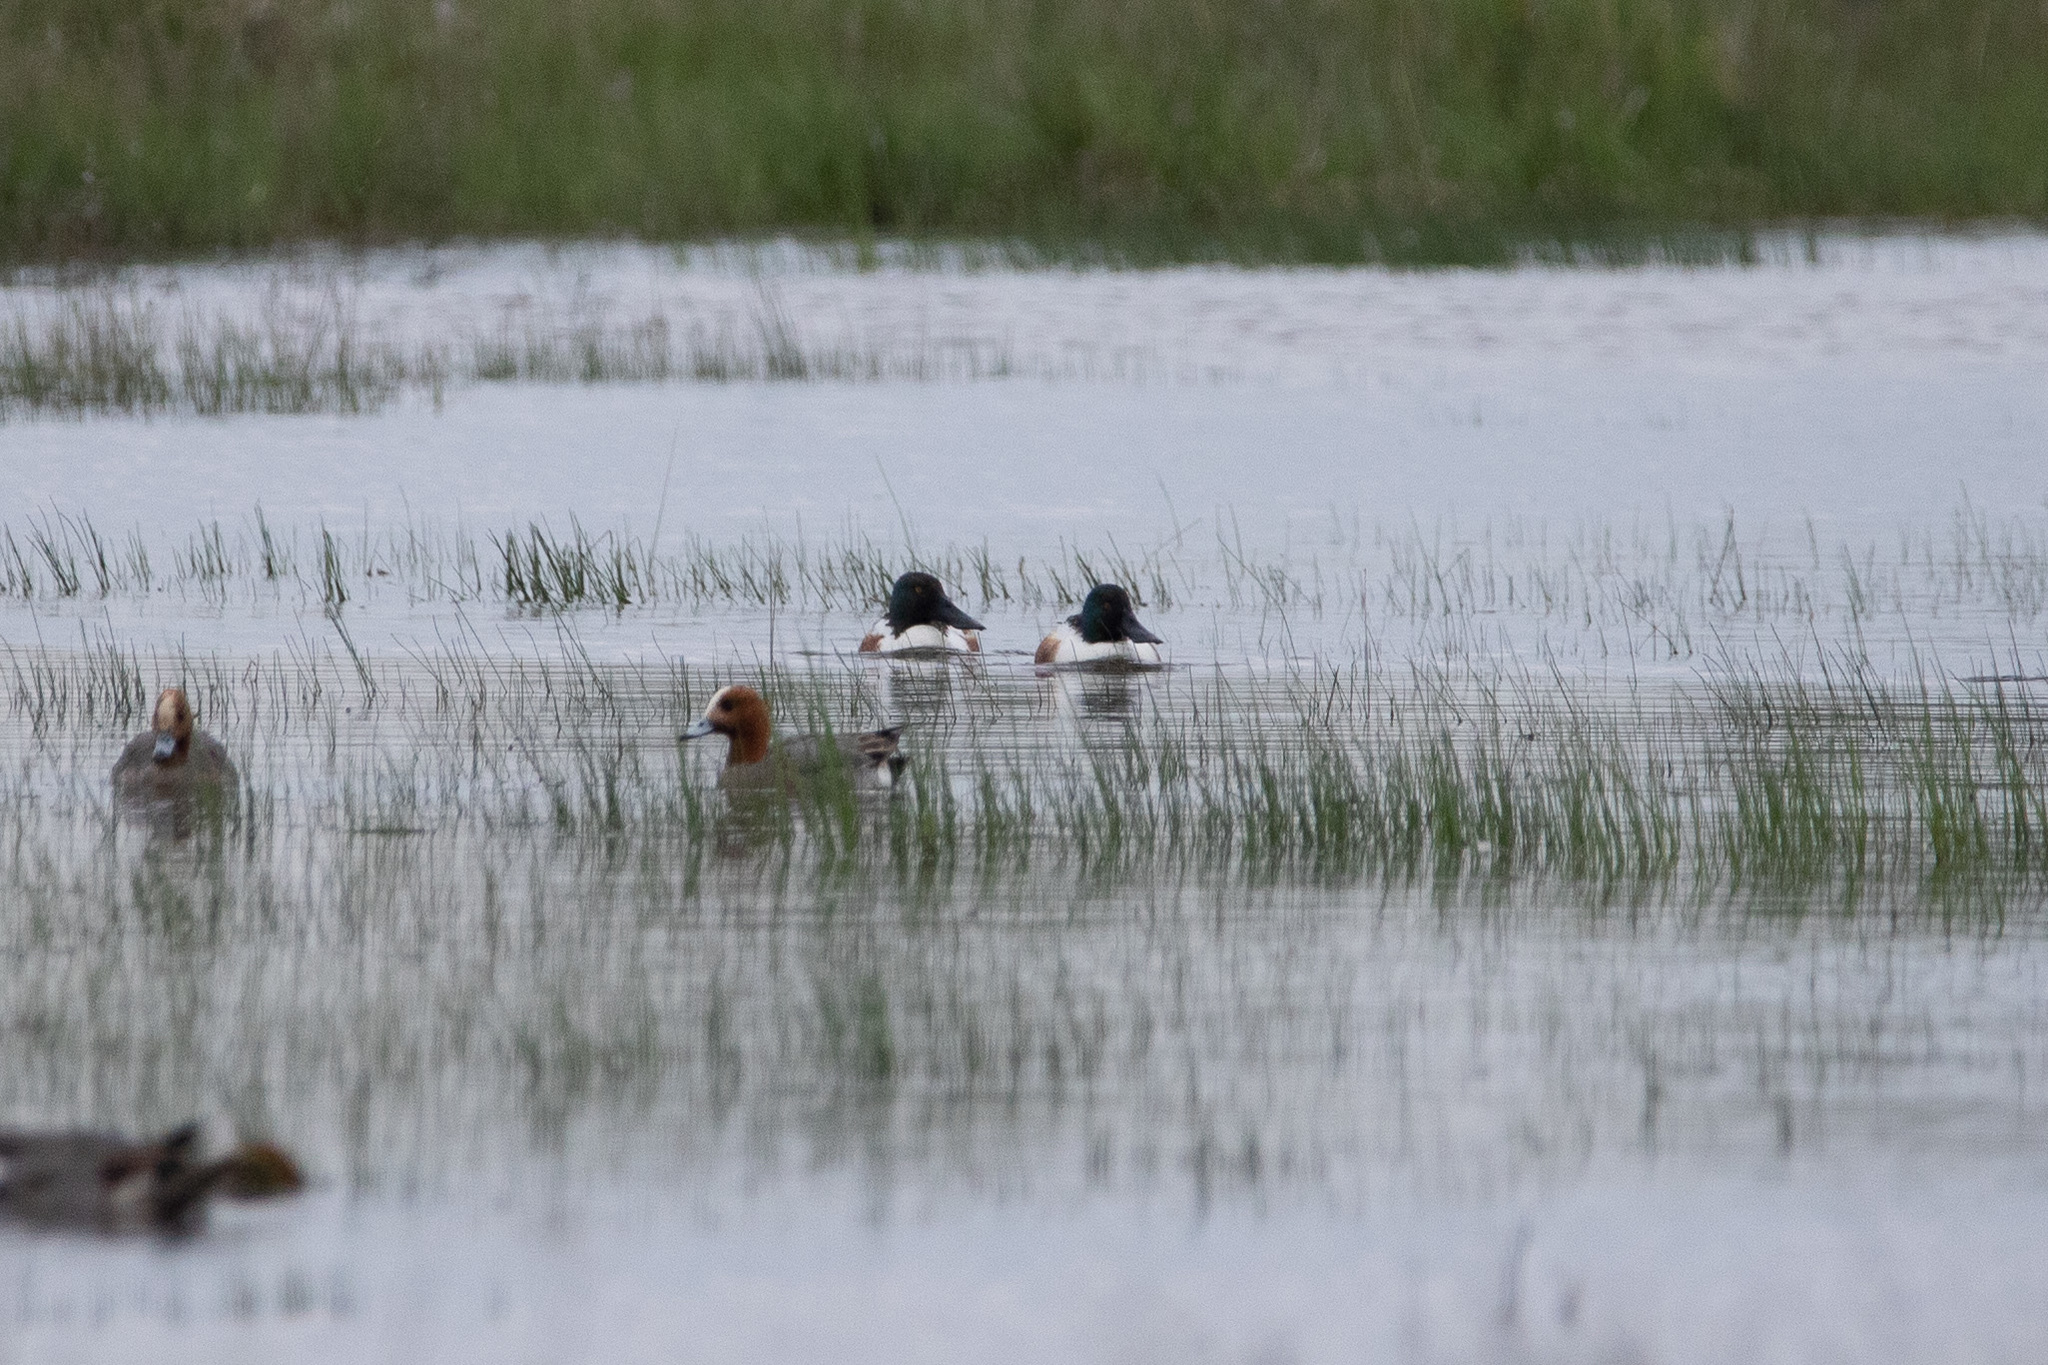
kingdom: Animalia
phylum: Chordata
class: Aves
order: Anseriformes
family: Anatidae
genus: Spatula
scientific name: Spatula clypeata
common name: Northern shoveler
